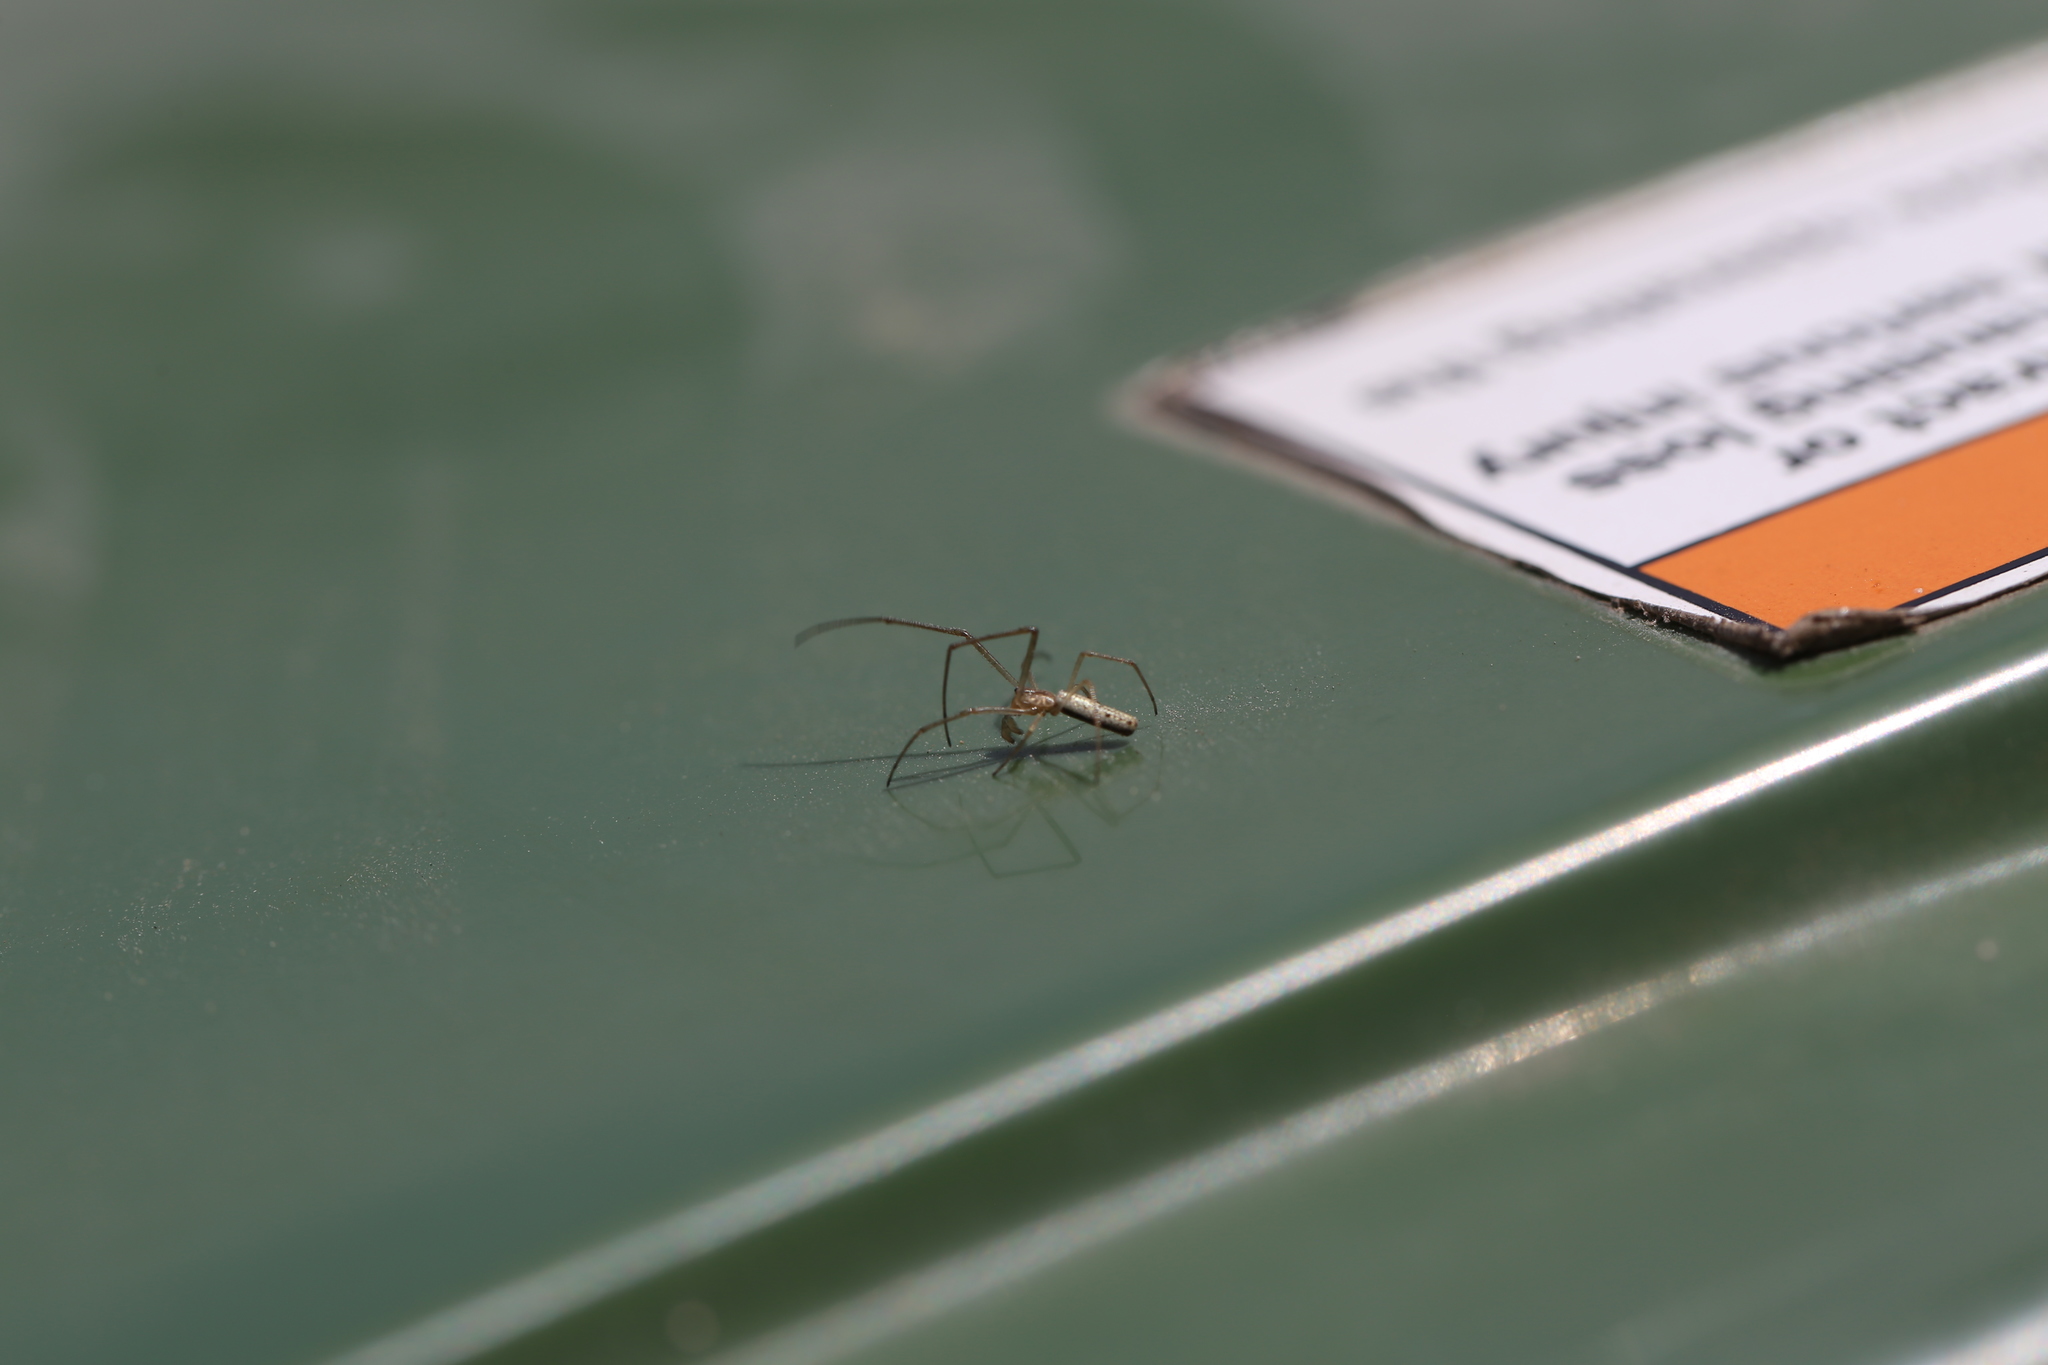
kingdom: Animalia
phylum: Arthropoda
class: Arachnida
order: Araneae
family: Tetragnathidae
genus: Tetragnatha
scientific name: Tetragnatha
